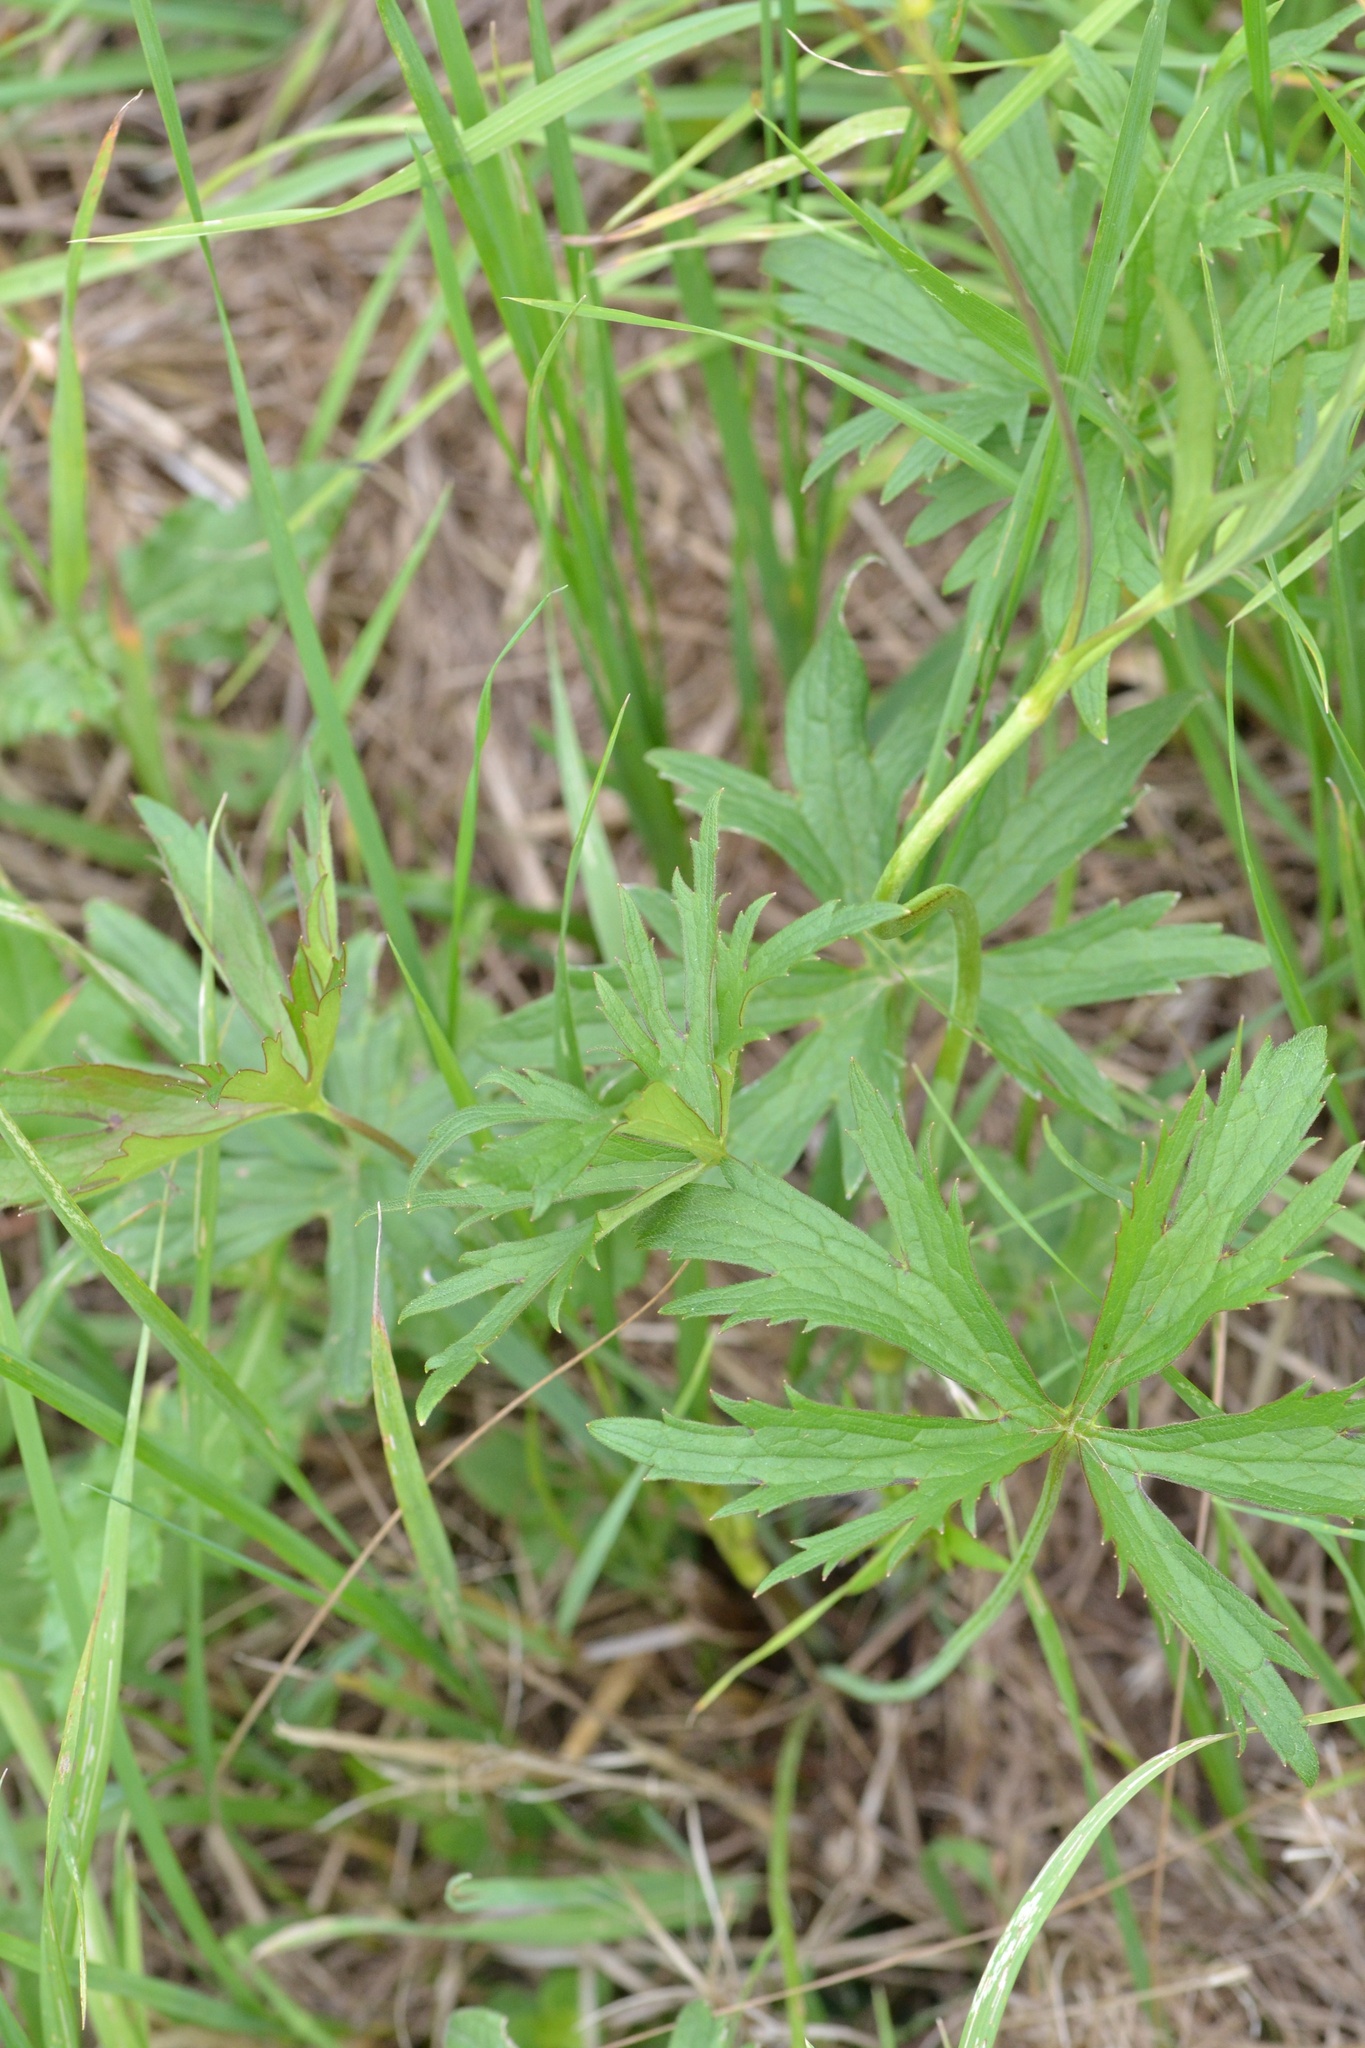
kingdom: Plantae
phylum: Tracheophyta
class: Magnoliopsida
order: Ranunculales
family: Ranunculaceae
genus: Ranunculus
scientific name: Ranunculus acris
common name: Meadow buttercup
